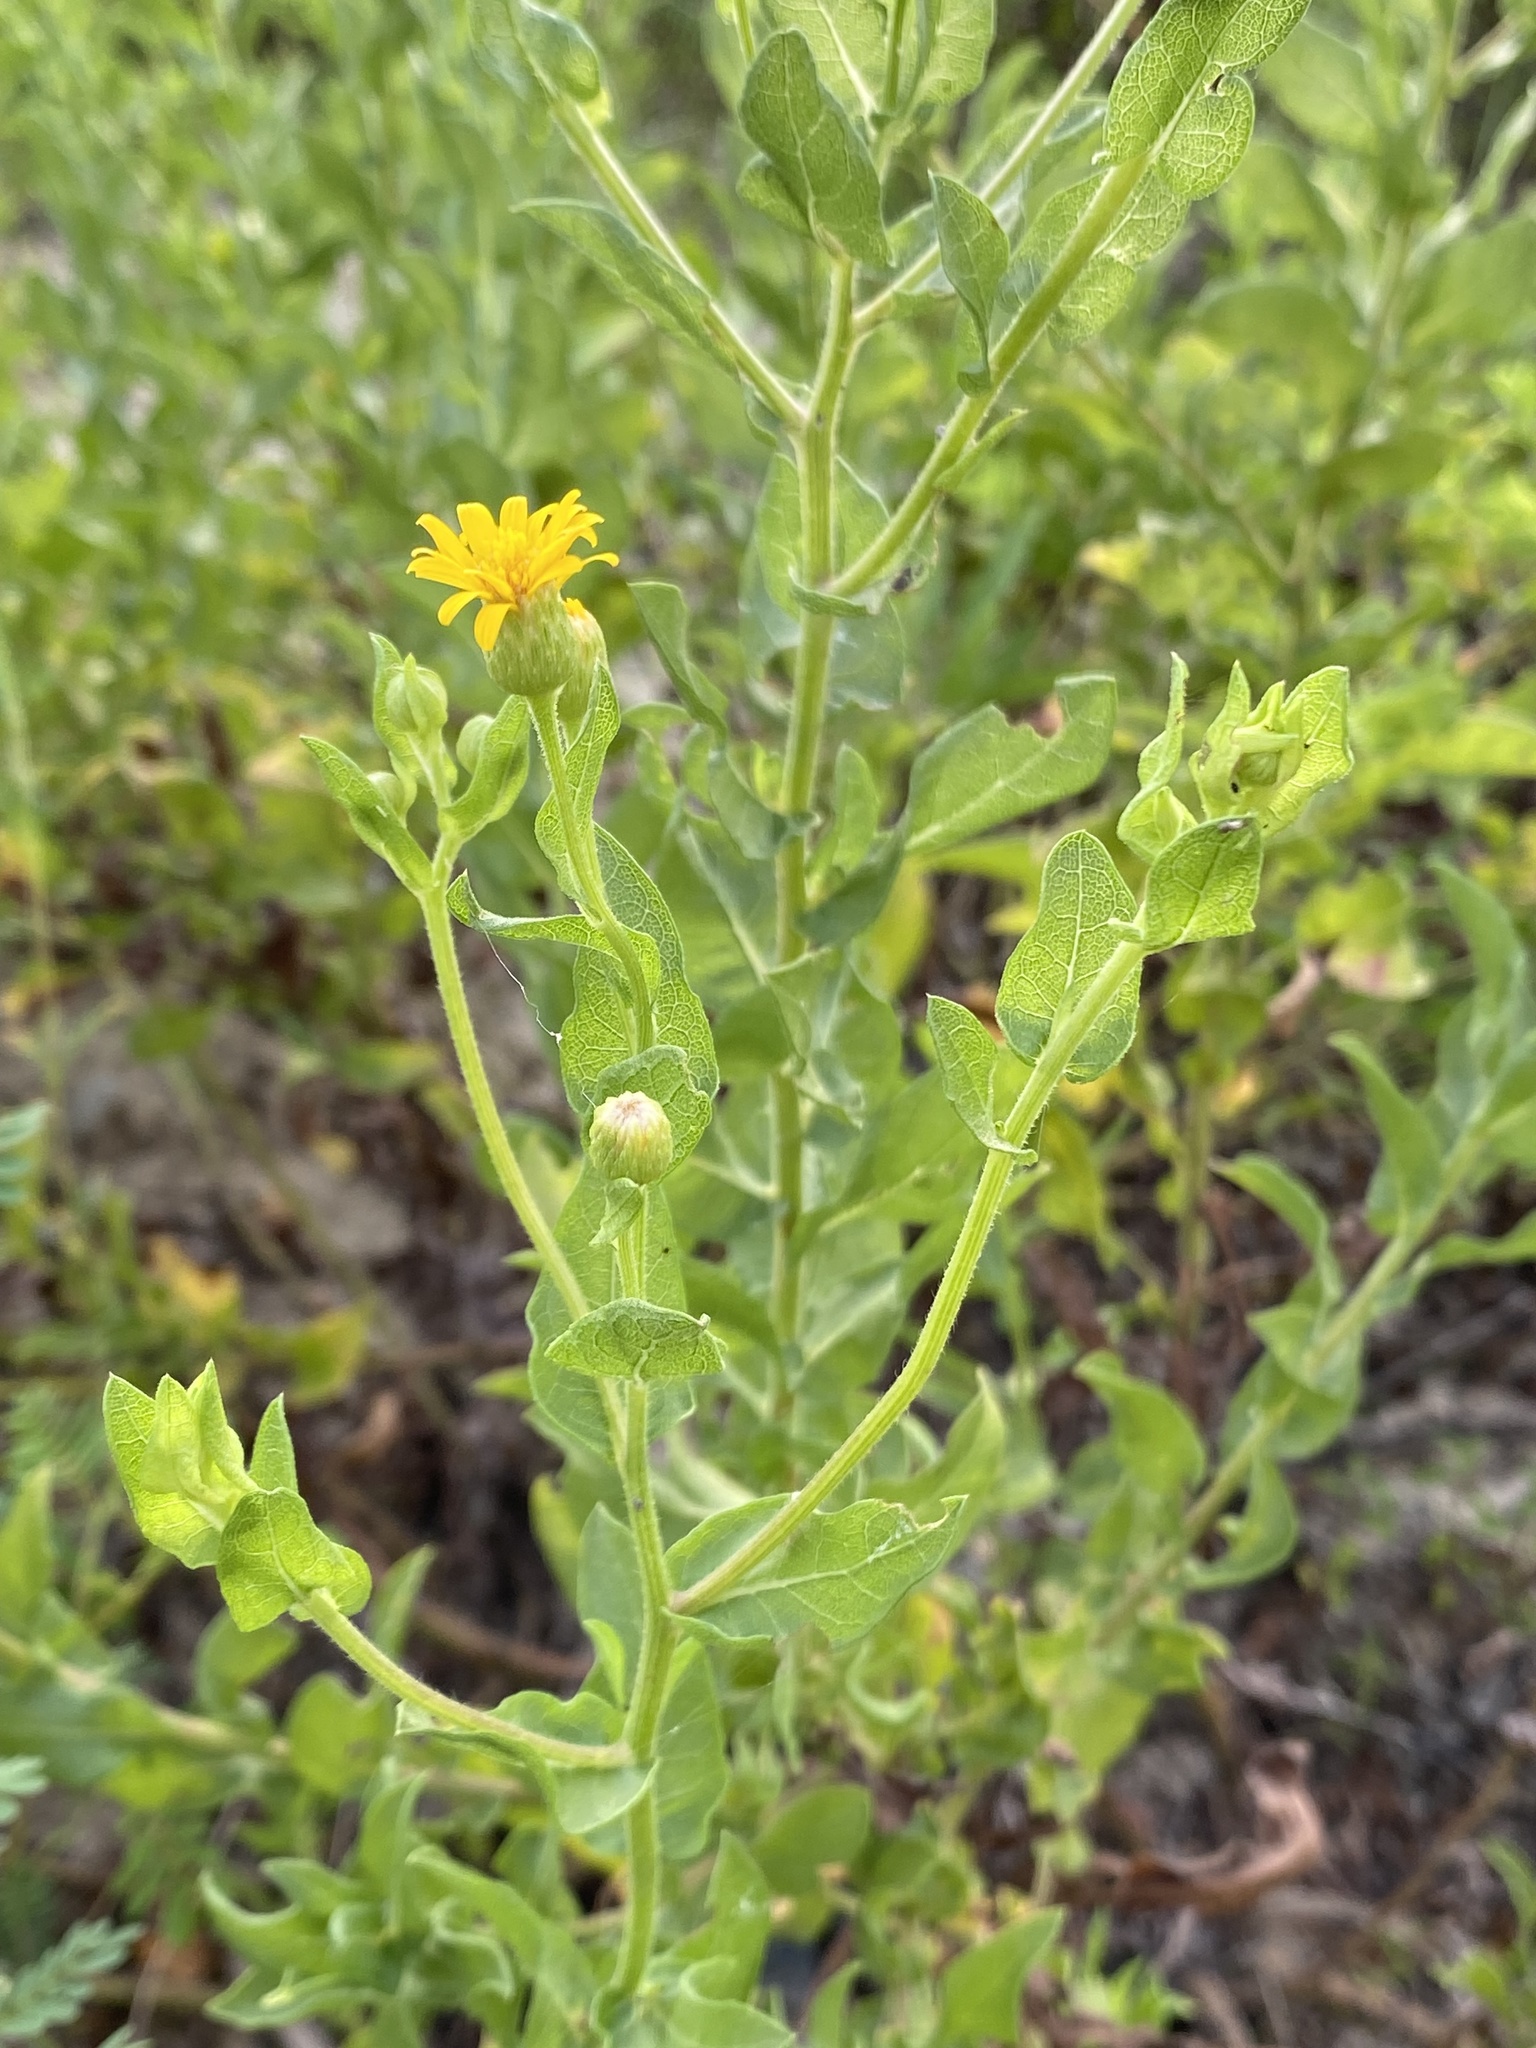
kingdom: Plantae
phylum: Tracheophyta
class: Magnoliopsida
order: Asterales
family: Asteraceae
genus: Heterotheca
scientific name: Heterotheca subaxillaris
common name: Camphorweed
